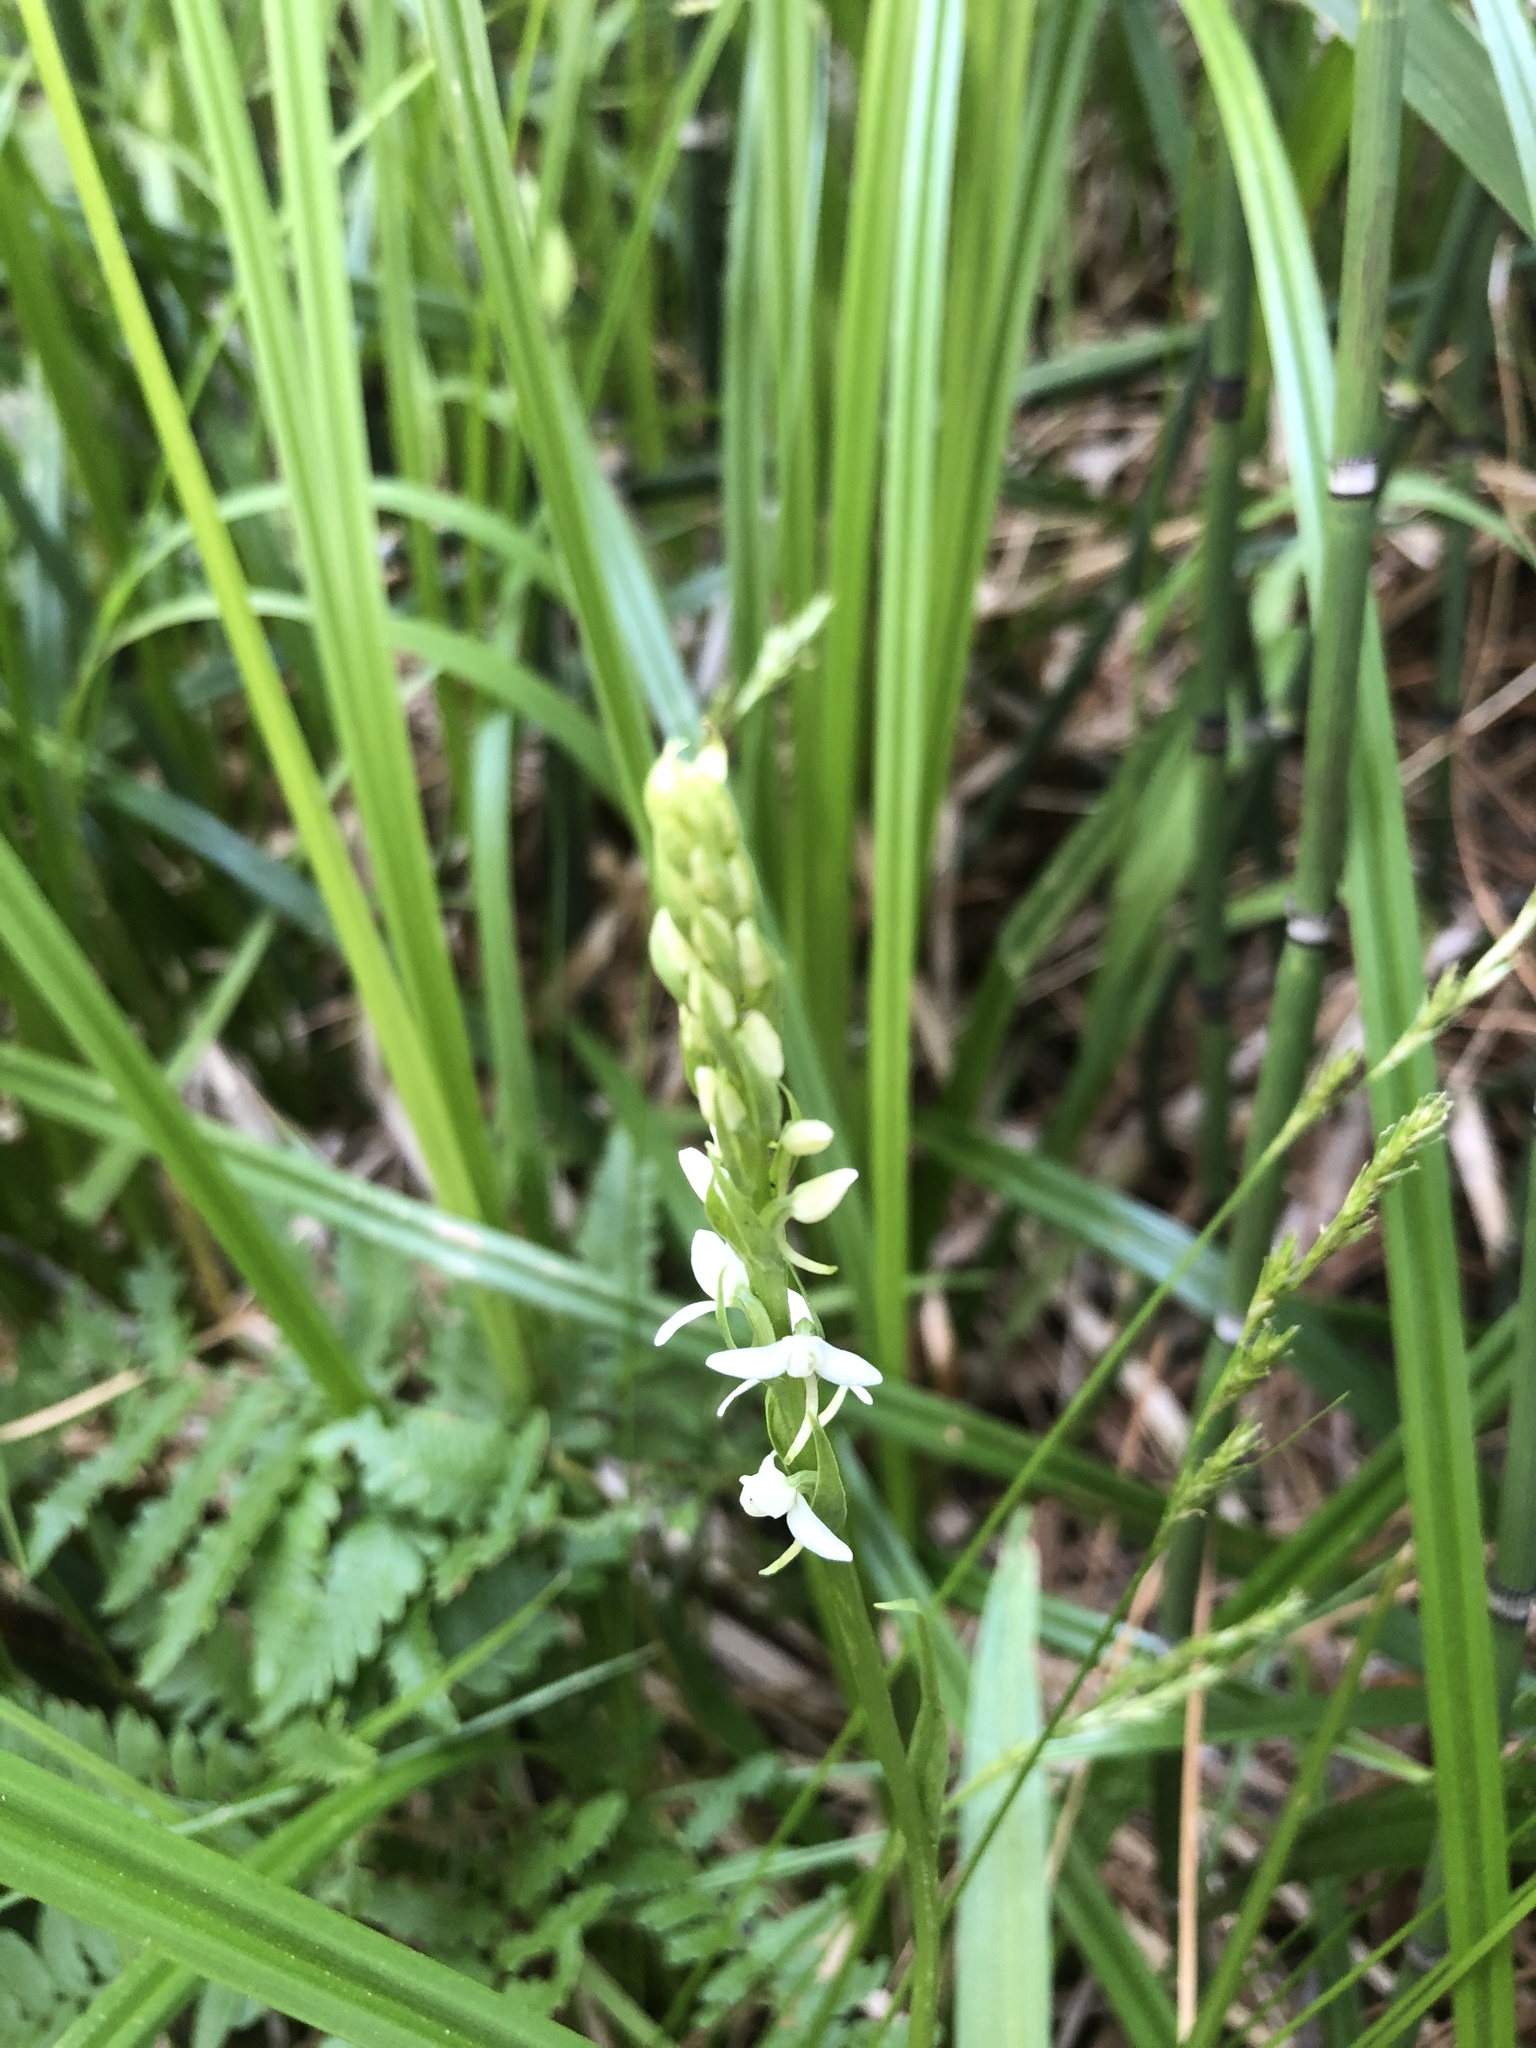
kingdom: Plantae
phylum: Tracheophyta
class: Liliopsida
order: Asparagales
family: Orchidaceae
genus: Platanthera
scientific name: Platanthera dilatata
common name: Bog candles
